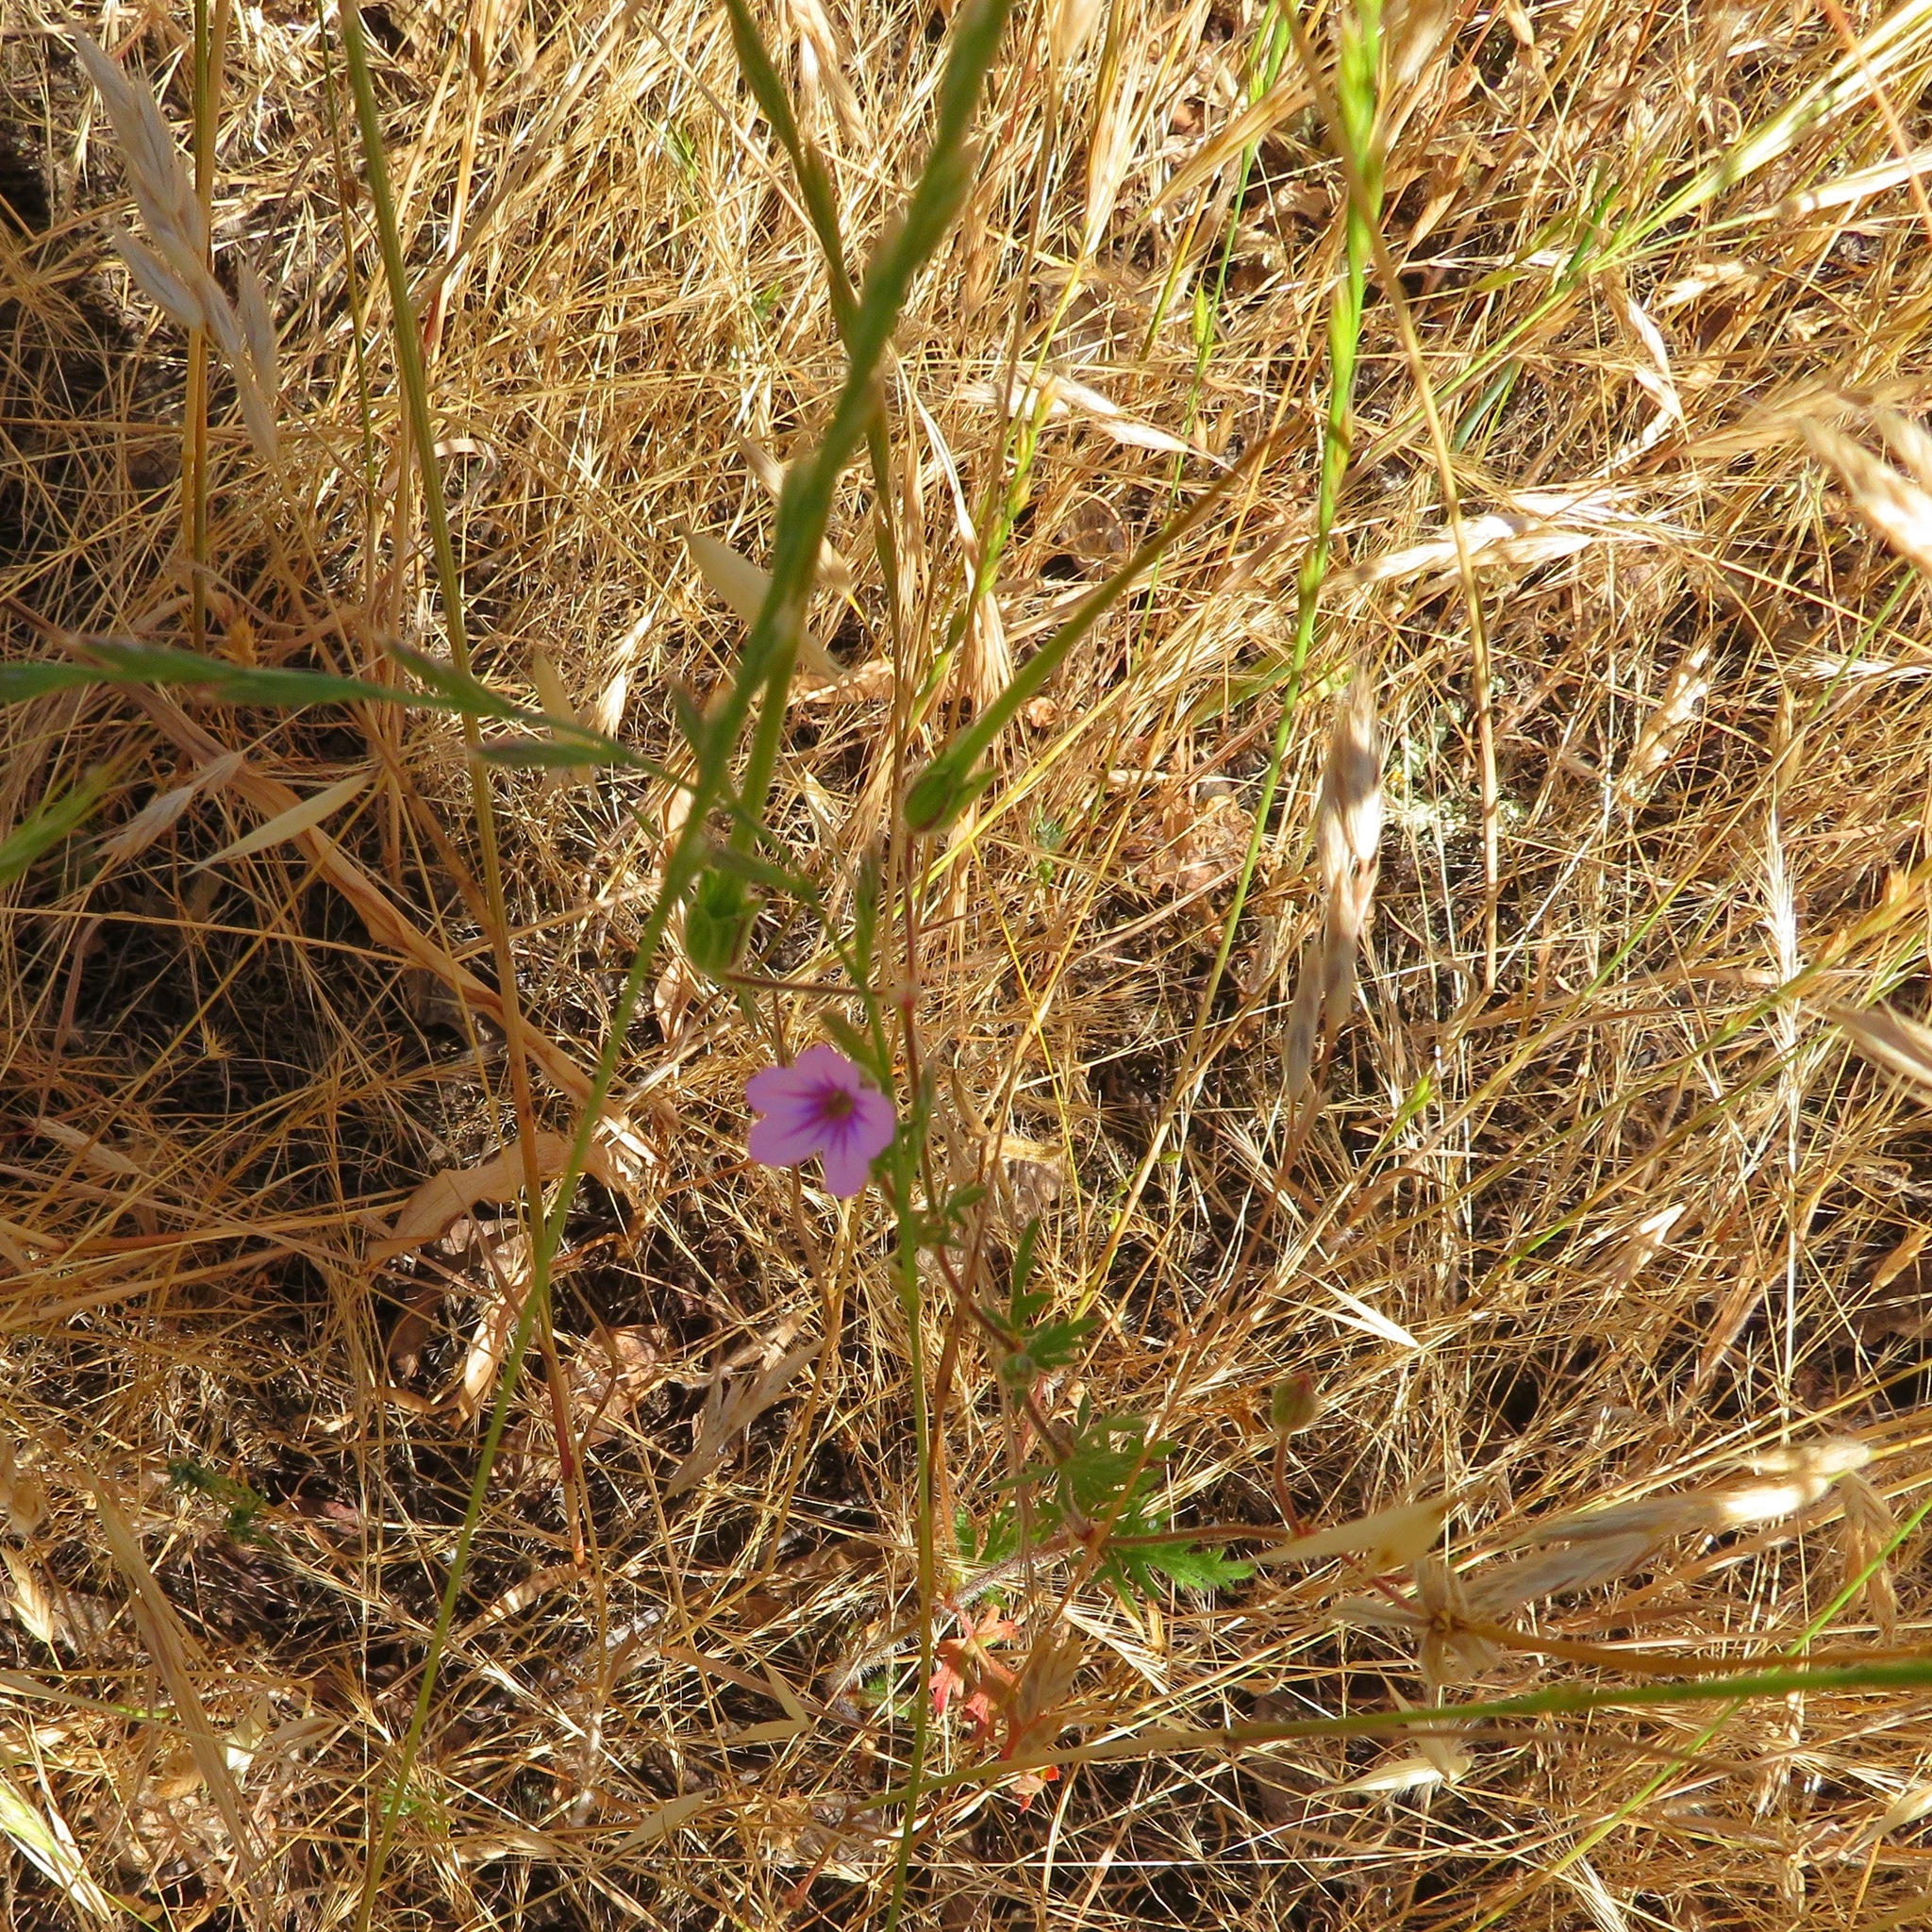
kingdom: Plantae
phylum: Tracheophyta
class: Magnoliopsida
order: Geraniales
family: Geraniaceae
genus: Erodium
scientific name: Erodium botrys
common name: Mediterranean stork's-bill
